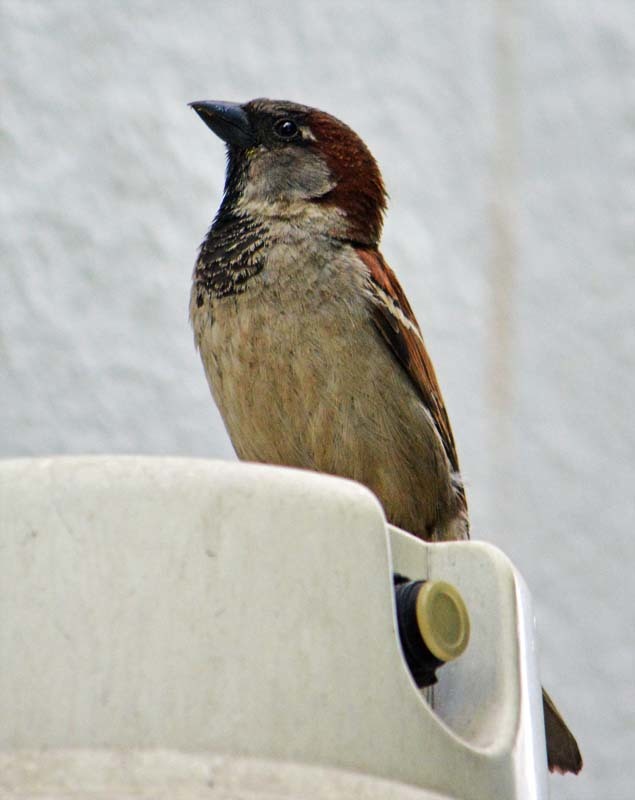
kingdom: Animalia
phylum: Chordata
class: Aves
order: Passeriformes
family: Passeridae
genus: Passer
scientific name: Passer domesticus
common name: House sparrow
